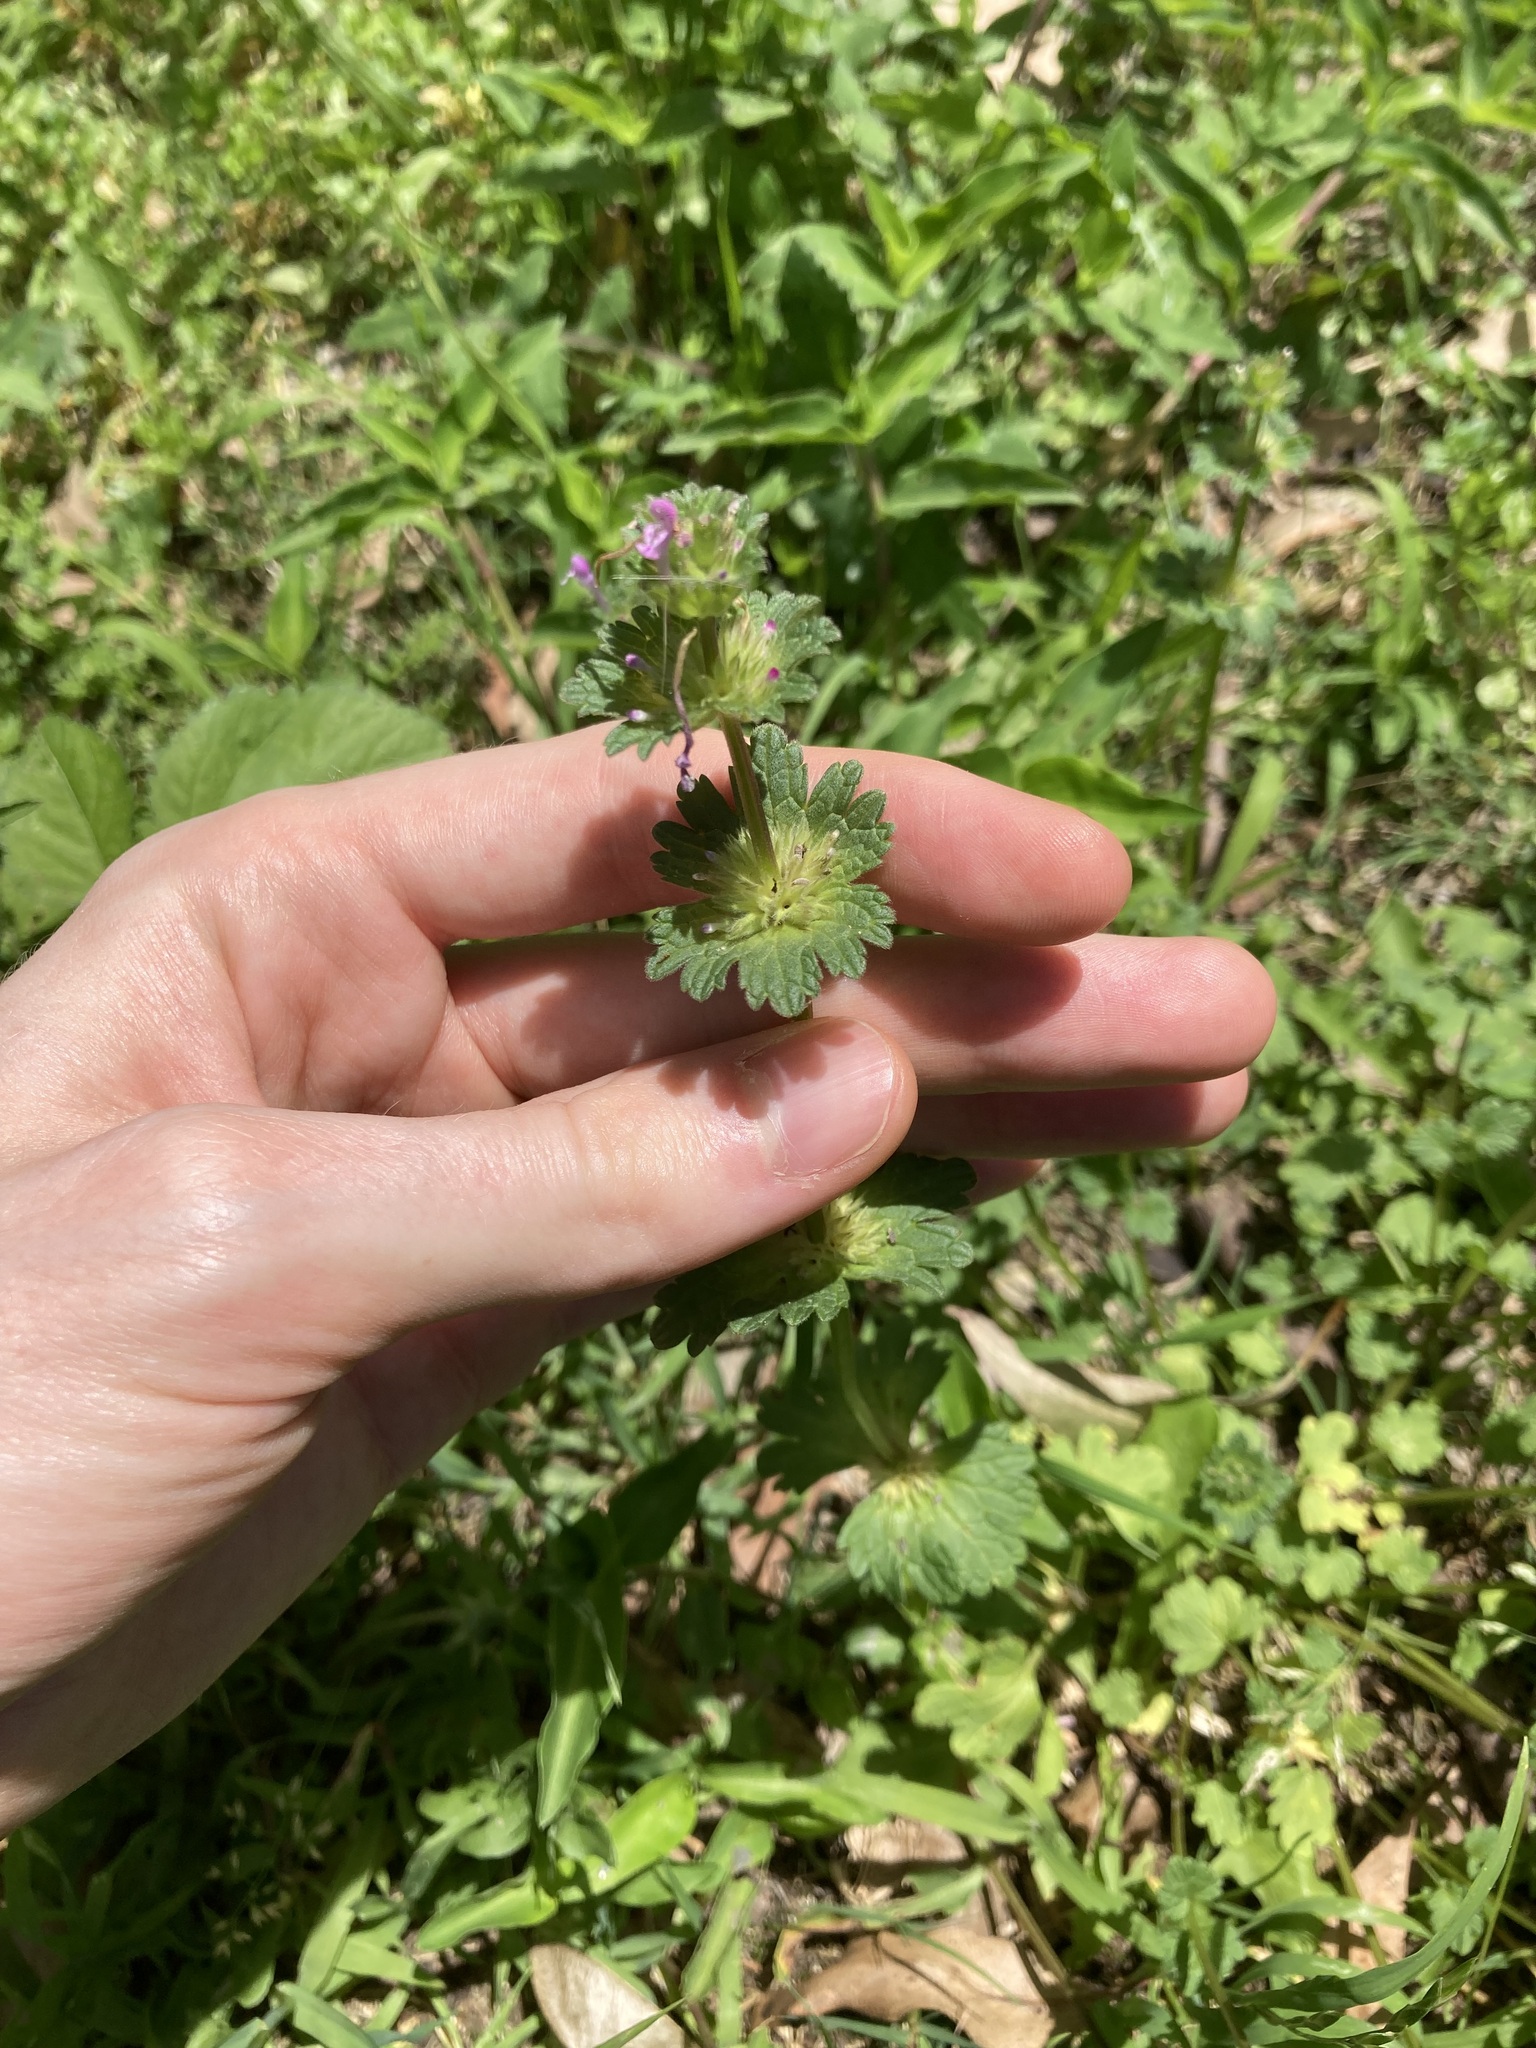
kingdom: Plantae
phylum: Tracheophyta
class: Magnoliopsida
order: Lamiales
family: Lamiaceae
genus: Lamium
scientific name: Lamium amplexicaule
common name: Henbit dead-nettle
